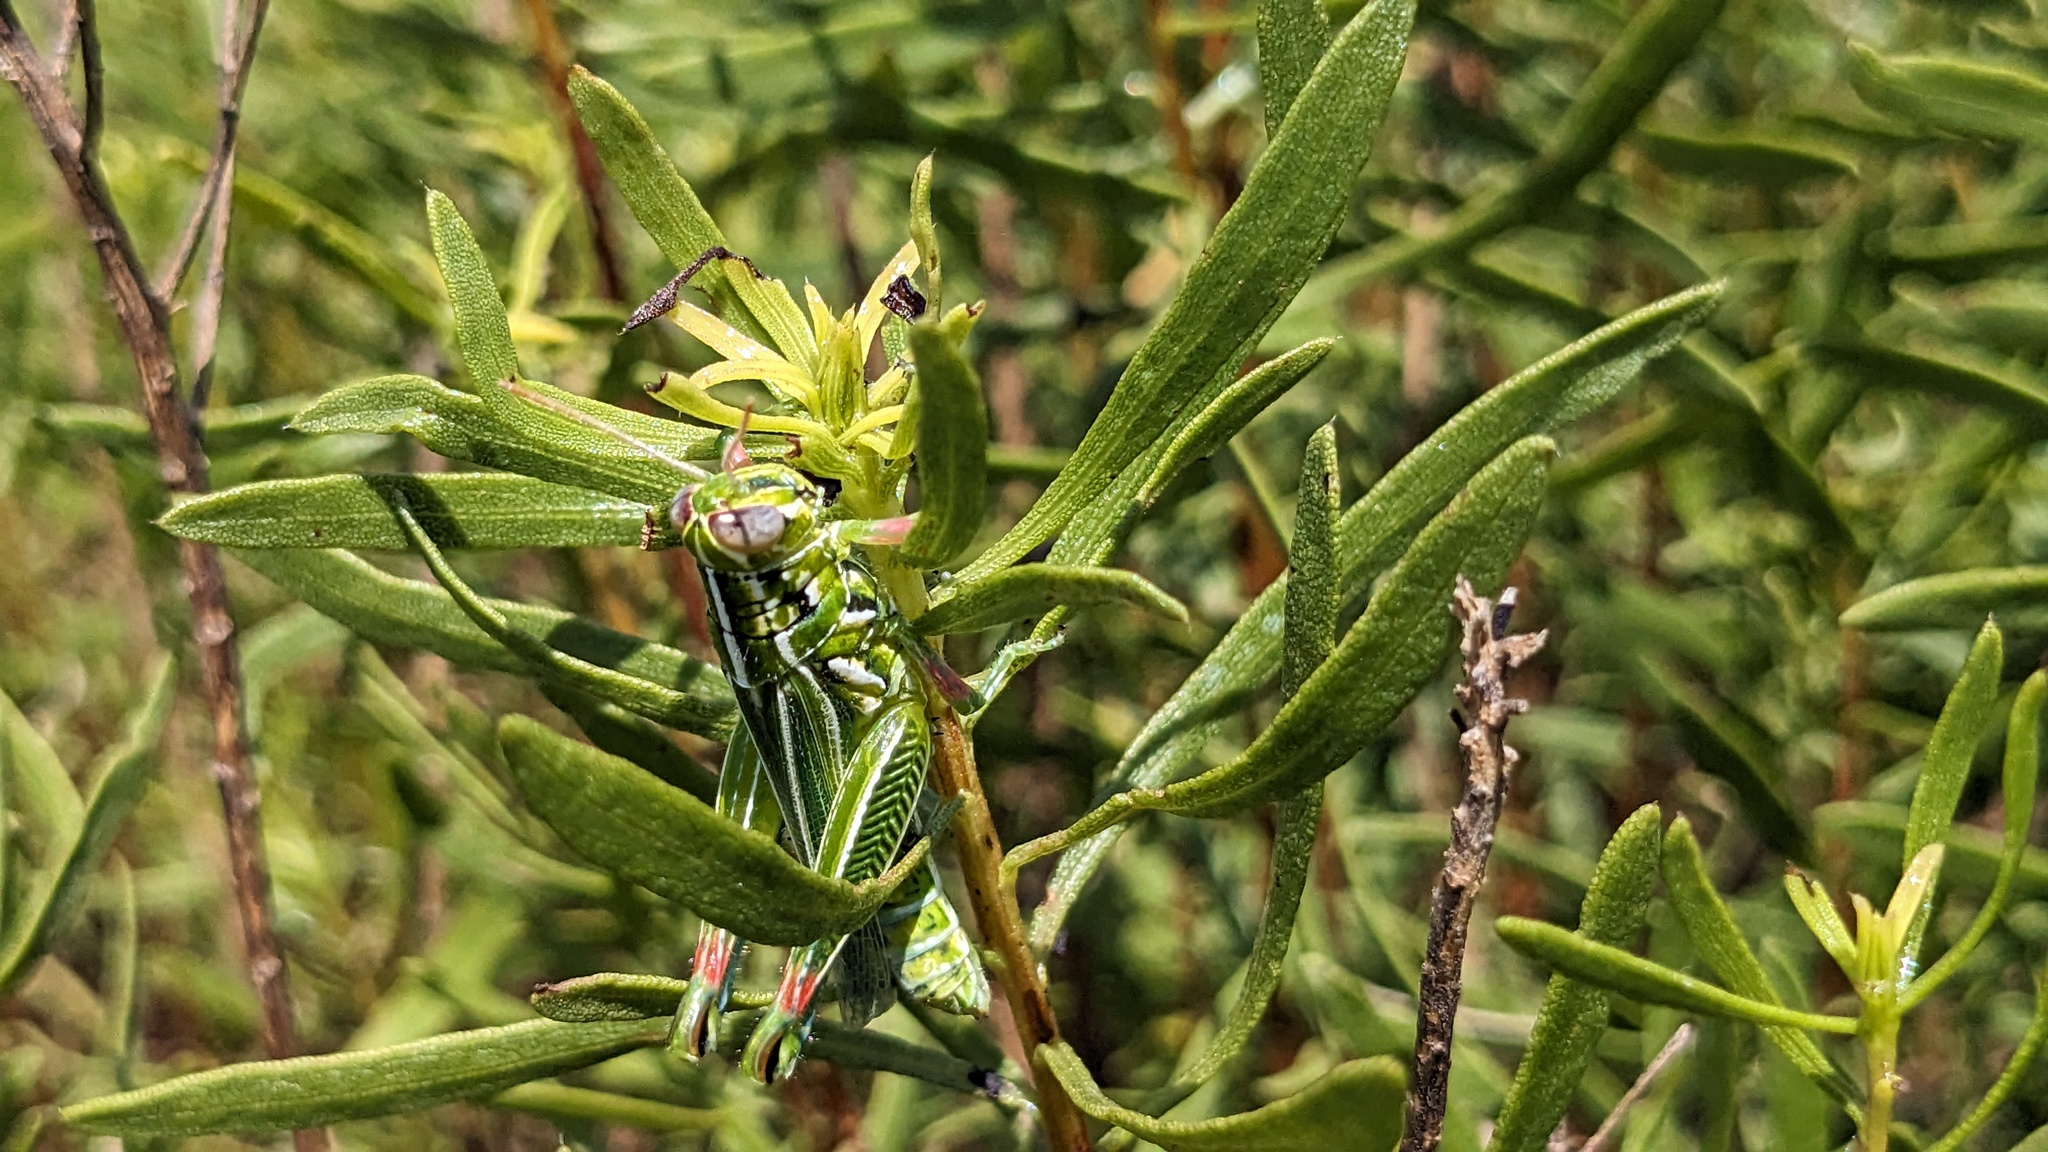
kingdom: Animalia
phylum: Arthropoda
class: Insecta
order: Orthoptera
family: Acrididae
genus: Hesperotettix
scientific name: Hesperotettix viridis
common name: Meadow purple-striped grasshopper
